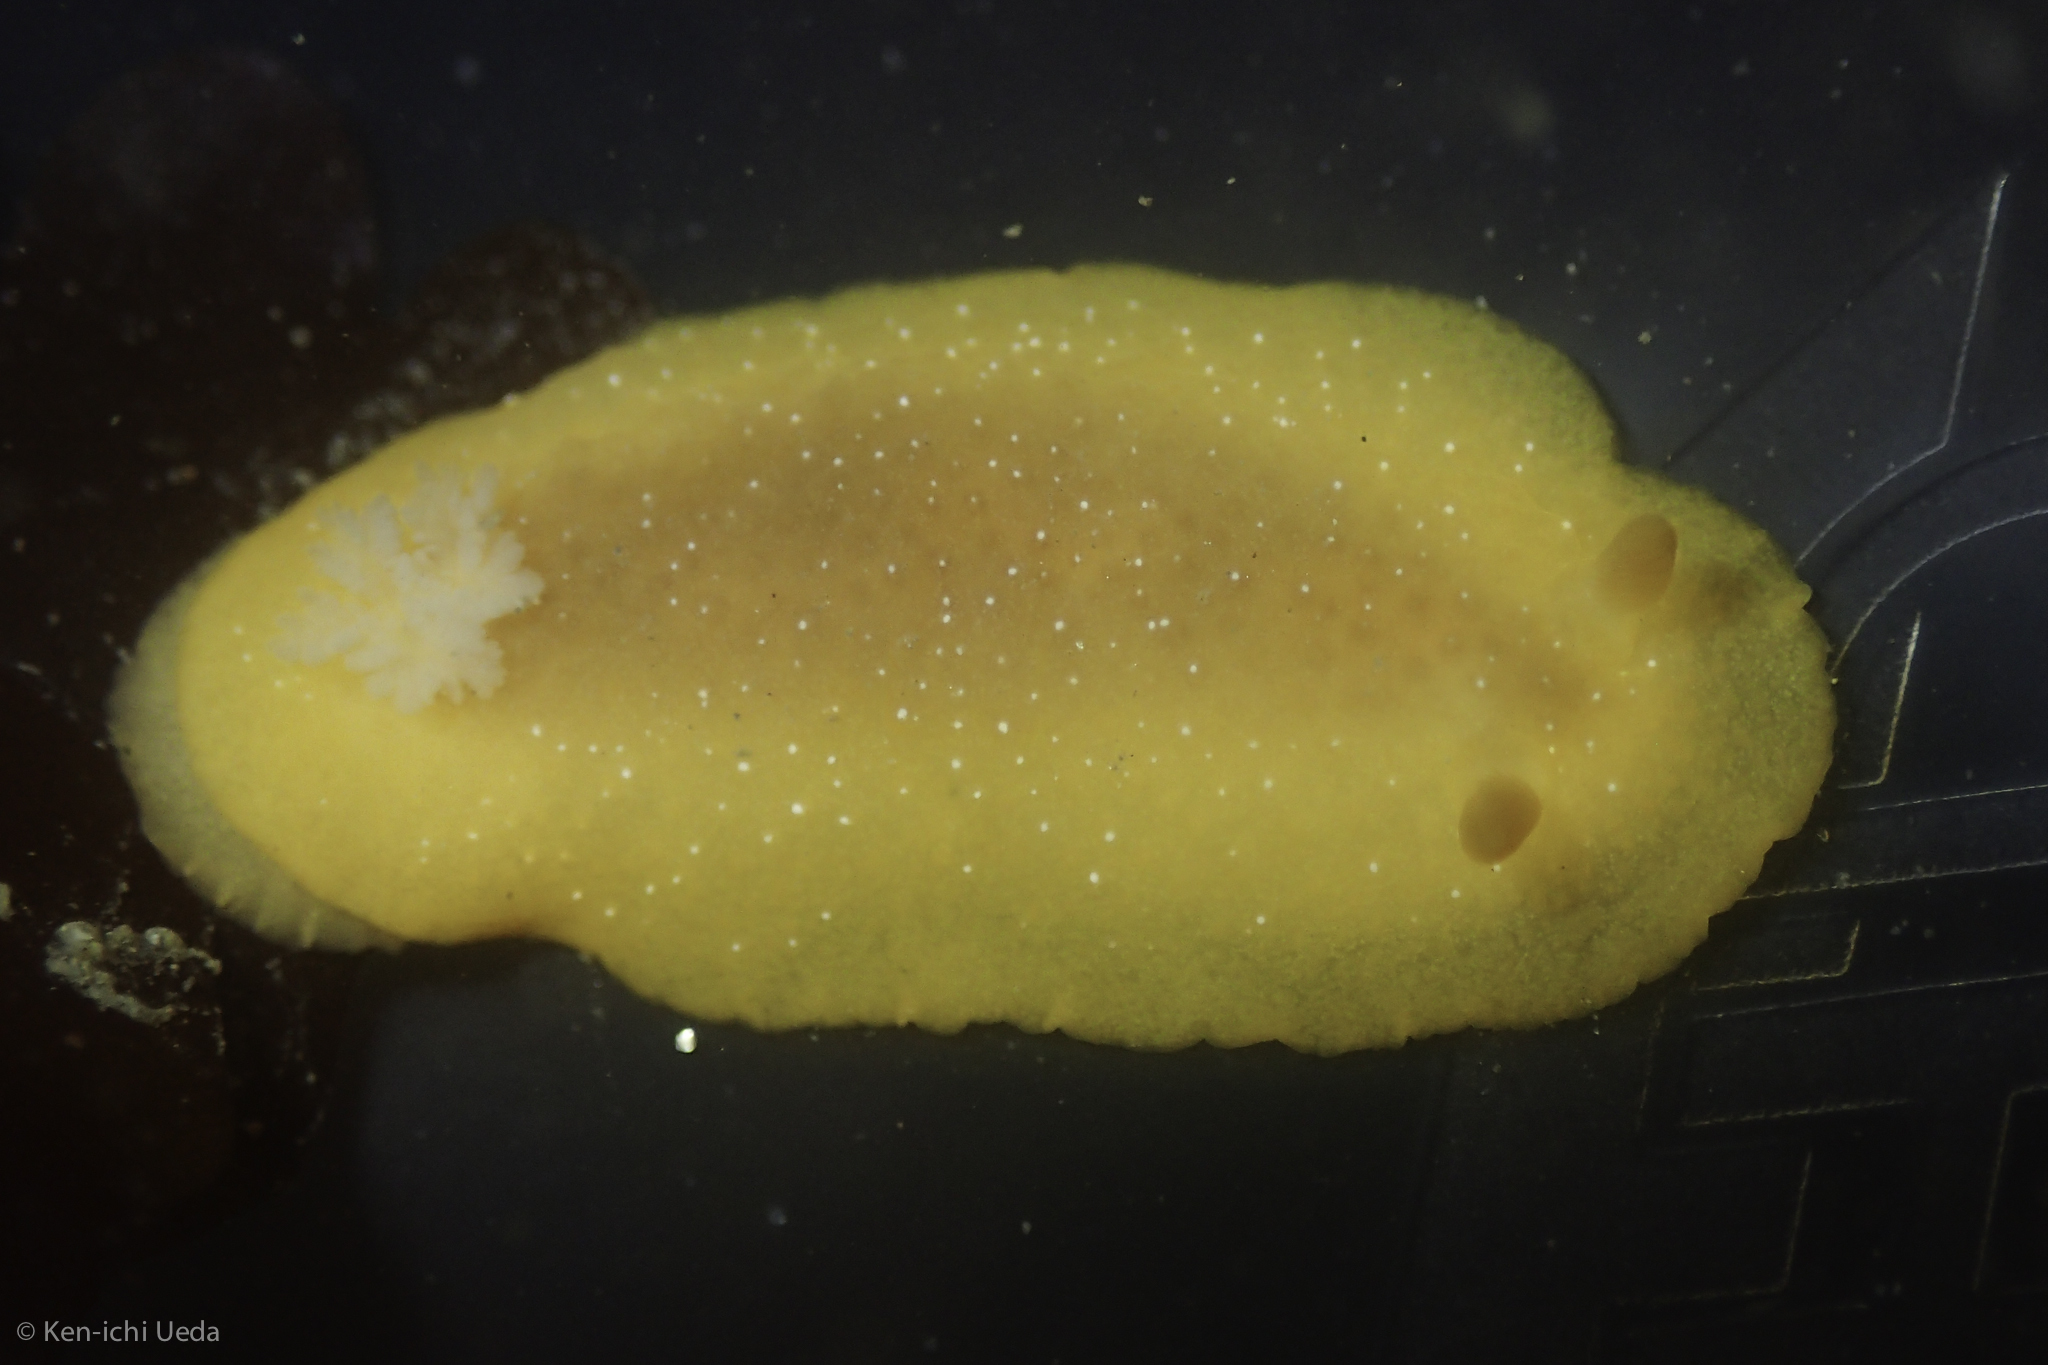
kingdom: Animalia
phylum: Mollusca
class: Gastropoda
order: Nudibranchia
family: Dendrodorididae
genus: Doriopsilla
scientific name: Doriopsilla fulva
